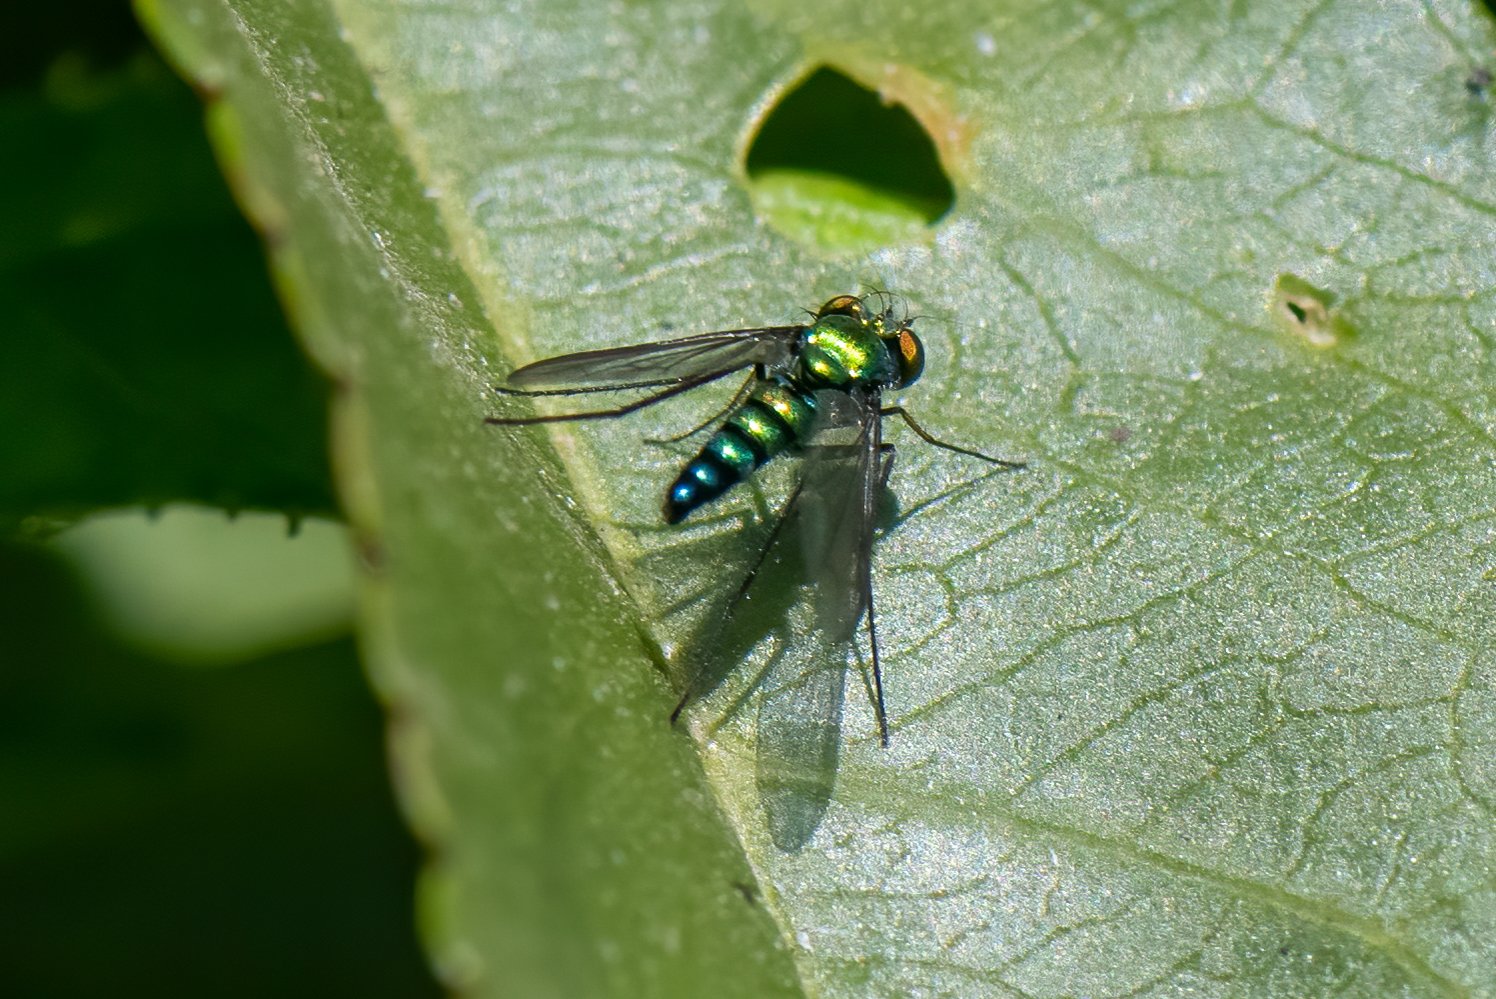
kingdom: Animalia
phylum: Arthropoda
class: Insecta
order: Diptera
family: Dolichopodidae
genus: Condylostylus
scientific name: Condylostylus longicornis
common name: Long-legged fly
